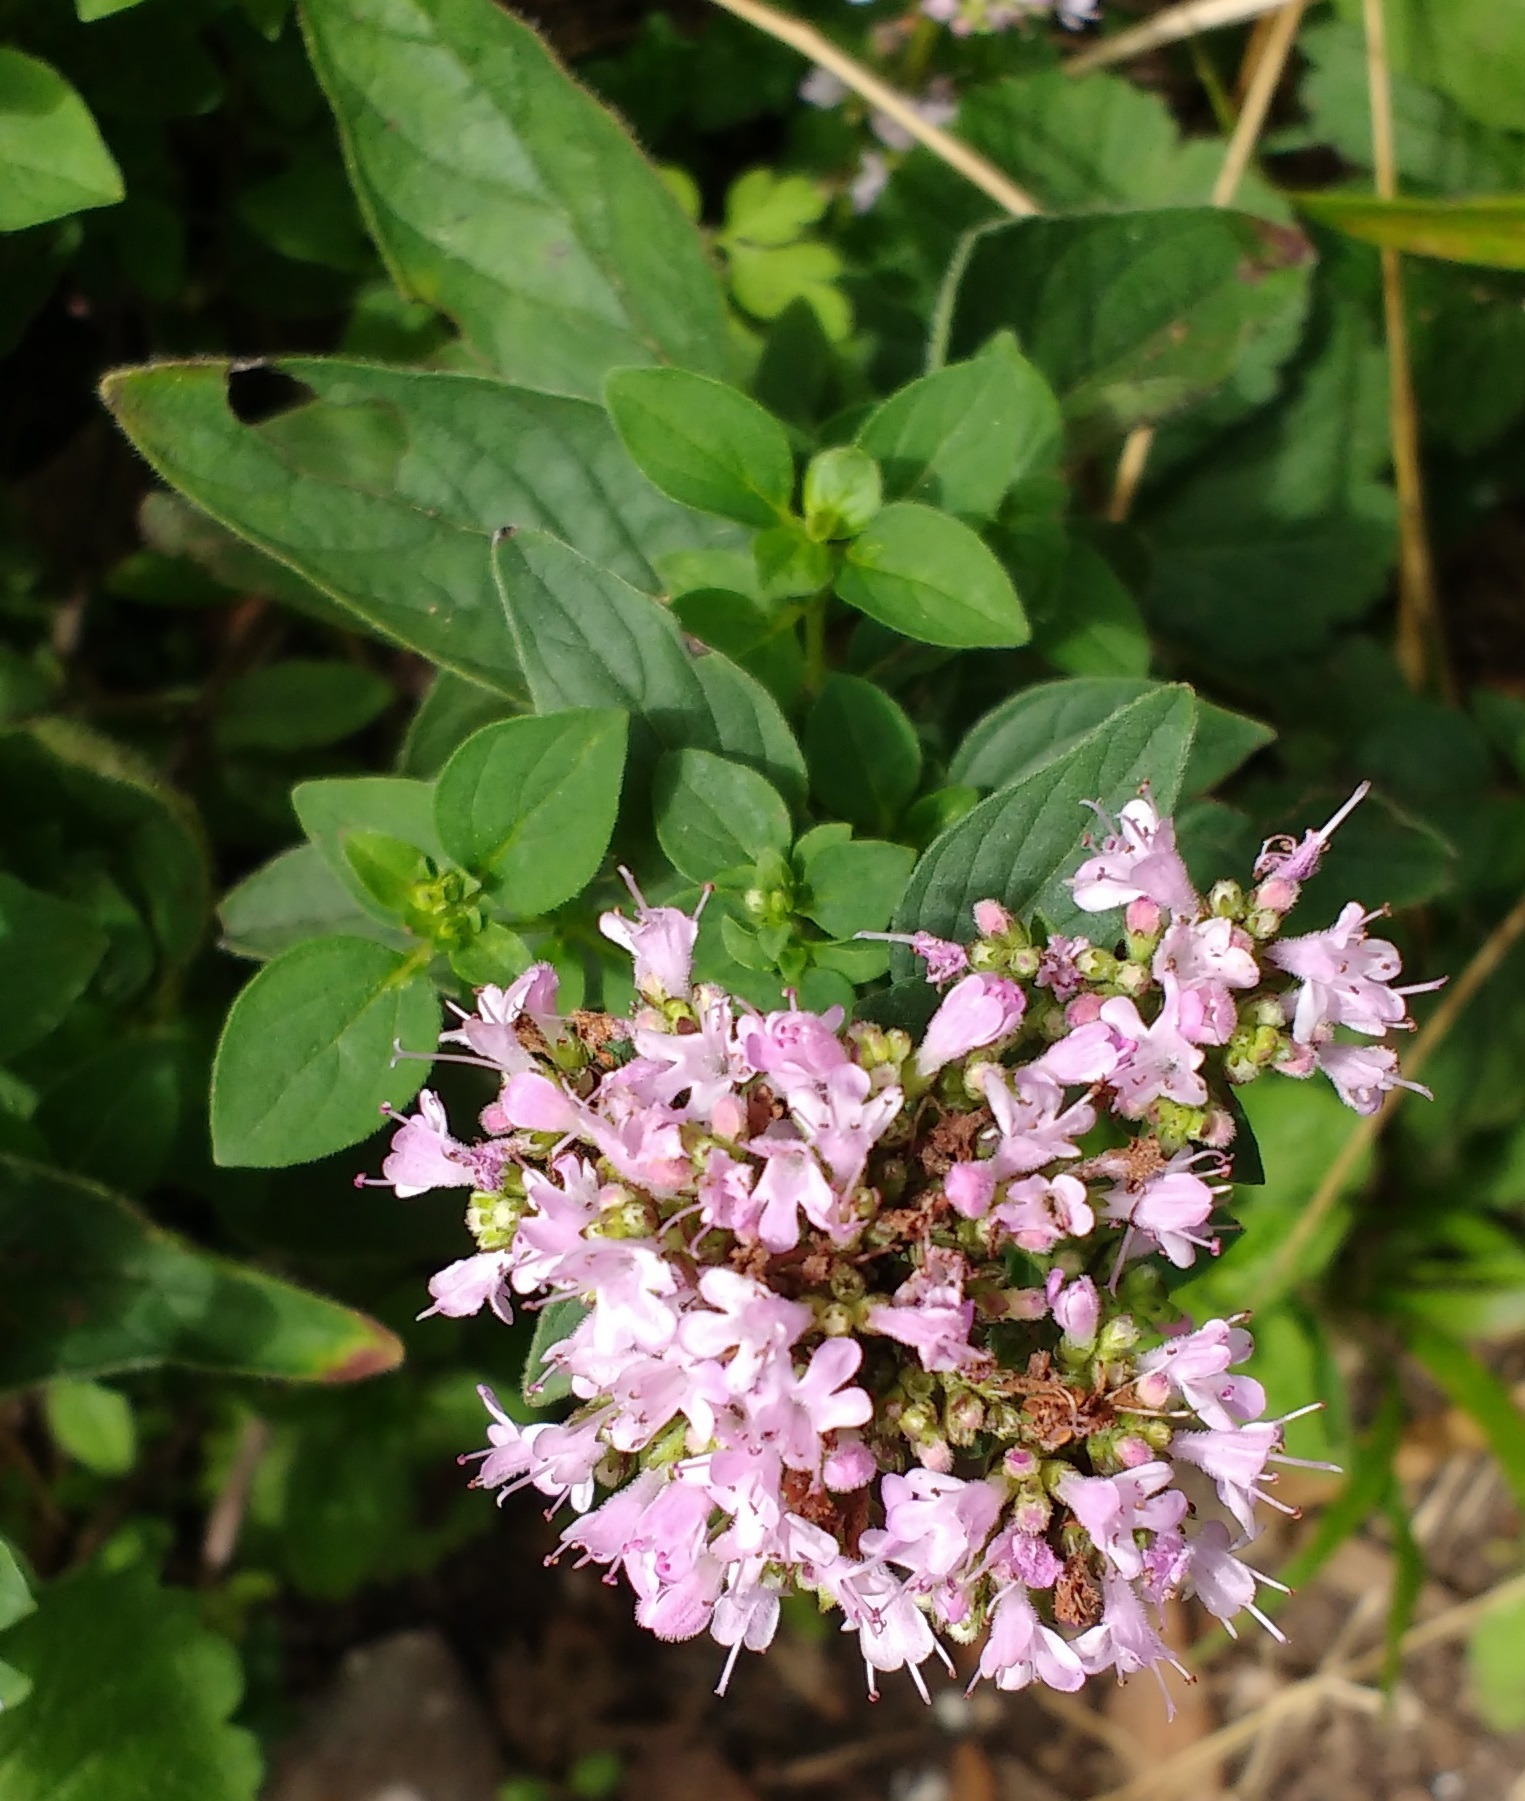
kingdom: Plantae
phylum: Tracheophyta
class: Magnoliopsida
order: Lamiales
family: Lamiaceae
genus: Origanum
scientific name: Origanum vulgare
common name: Wild marjoram
